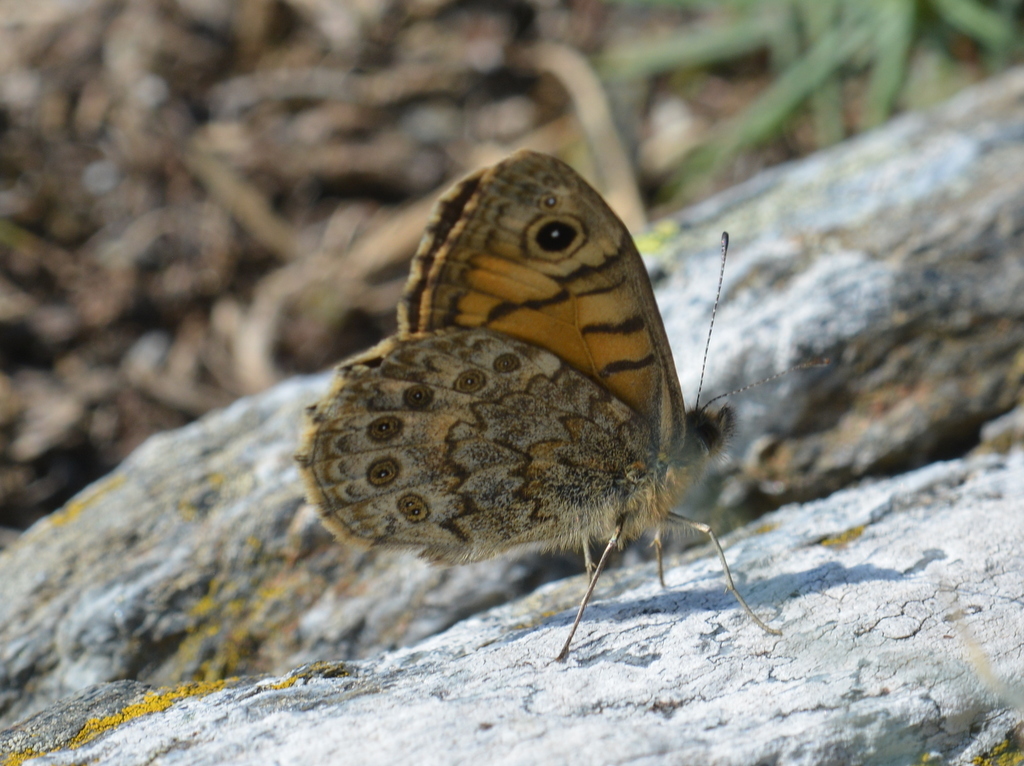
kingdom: Animalia
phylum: Arthropoda
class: Insecta
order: Lepidoptera
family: Nymphalidae
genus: Pararge
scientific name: Pararge Lasiommata megera
